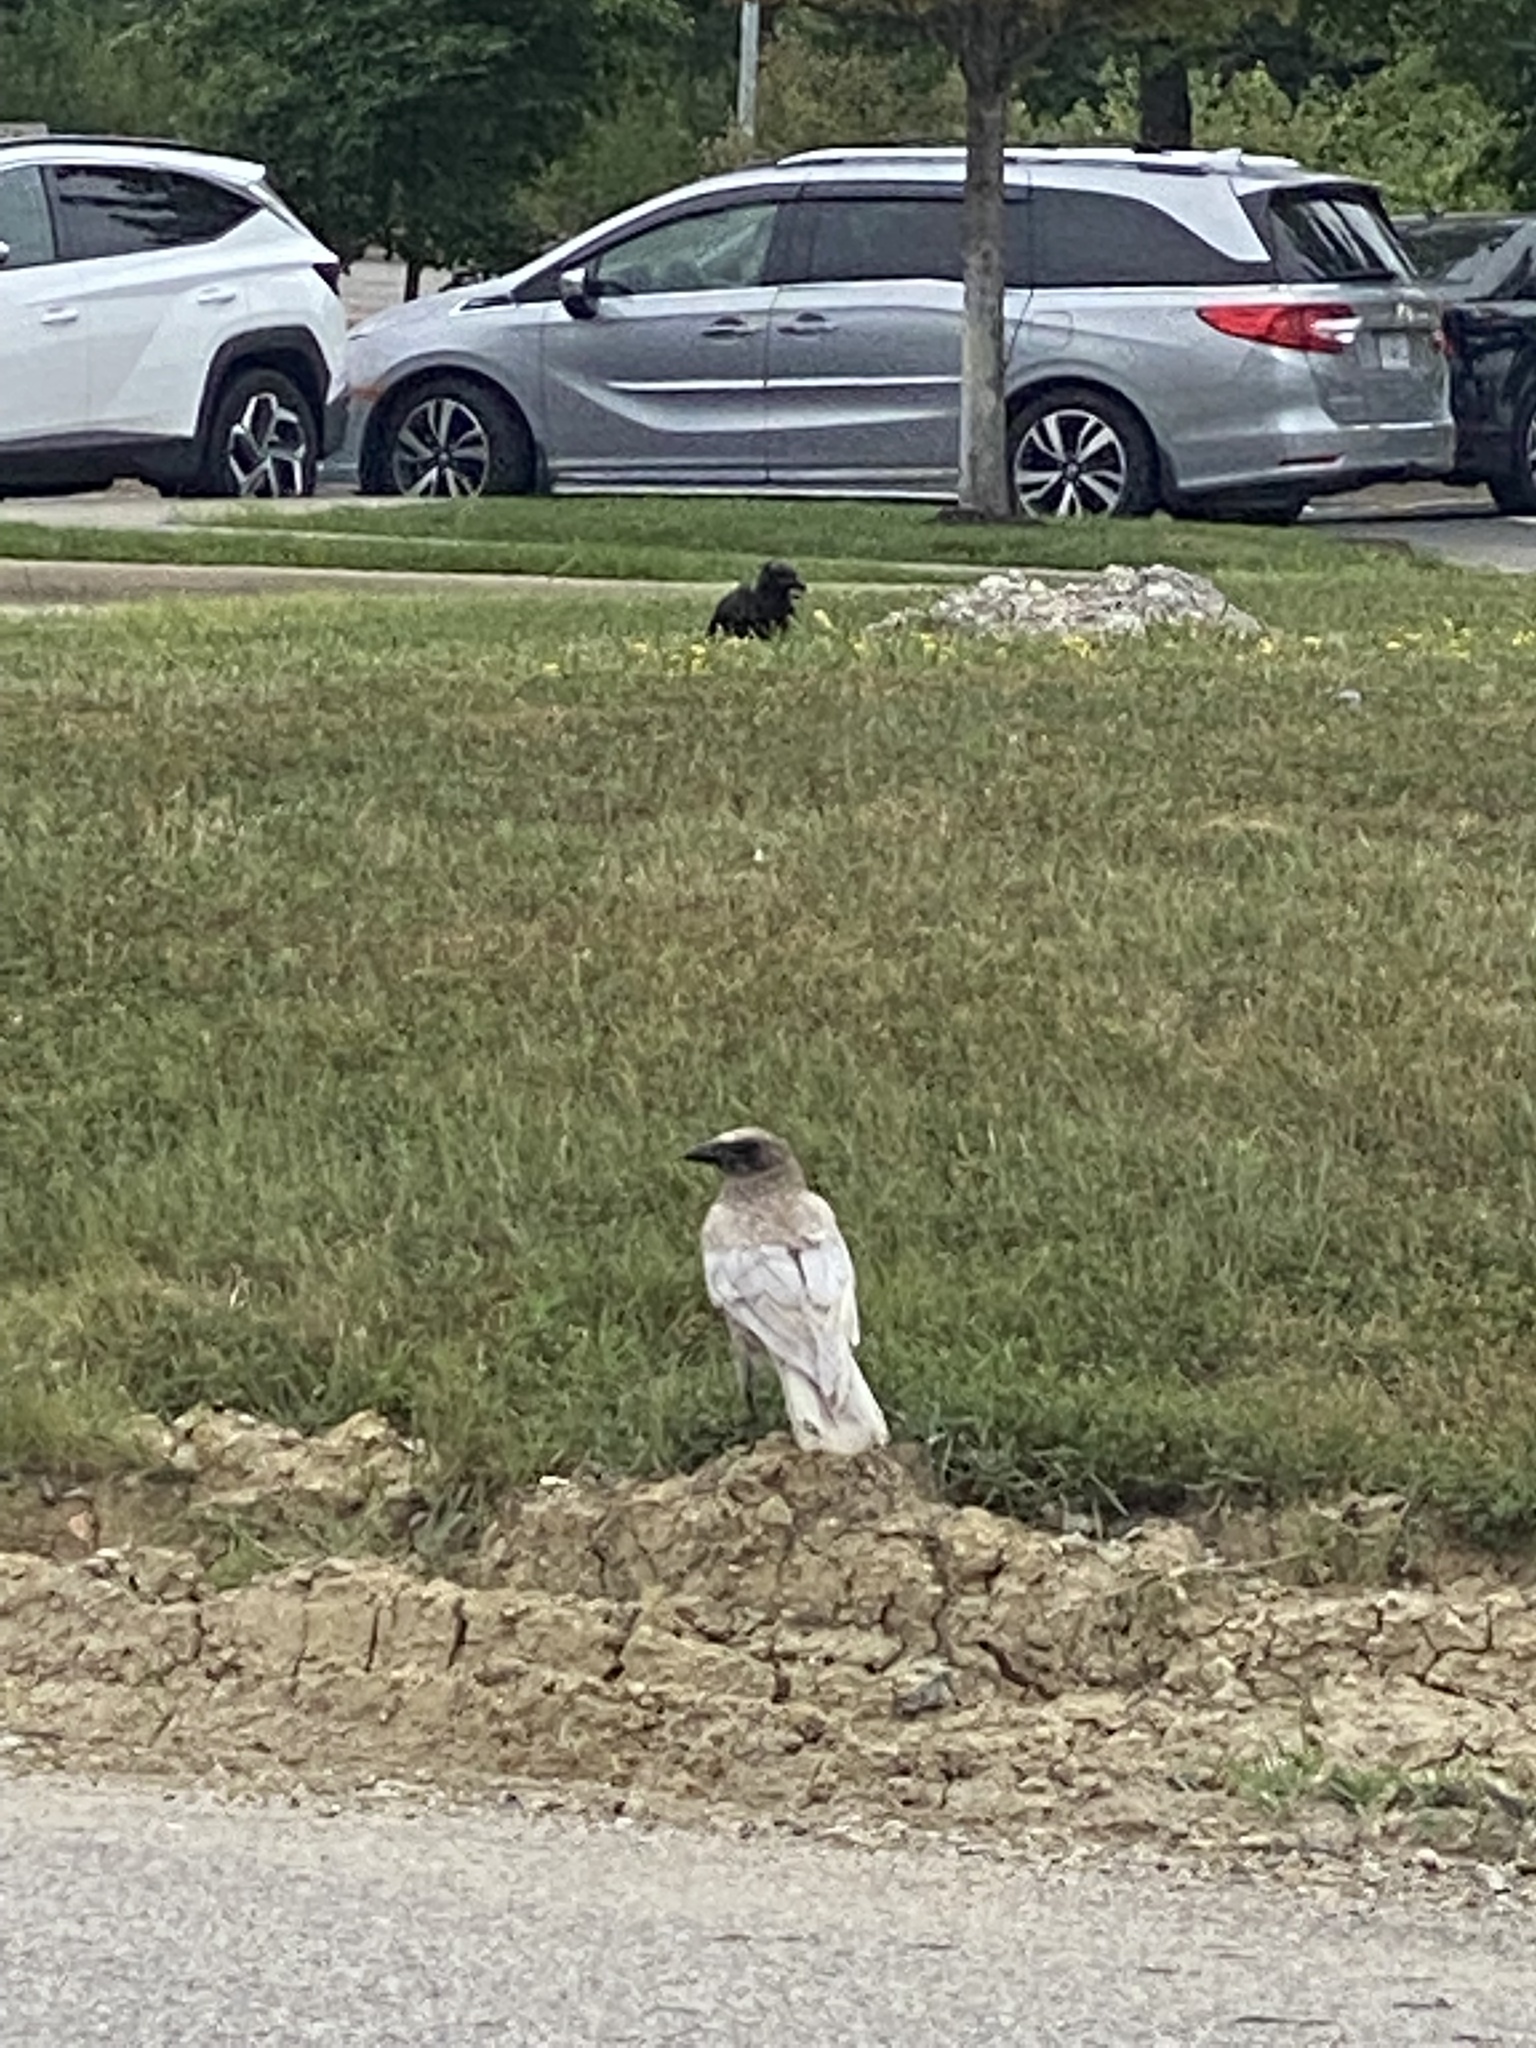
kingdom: Animalia
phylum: Chordata
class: Aves
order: Passeriformes
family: Corvidae
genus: Corvus
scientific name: Corvus brachyrhynchos
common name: American crow
